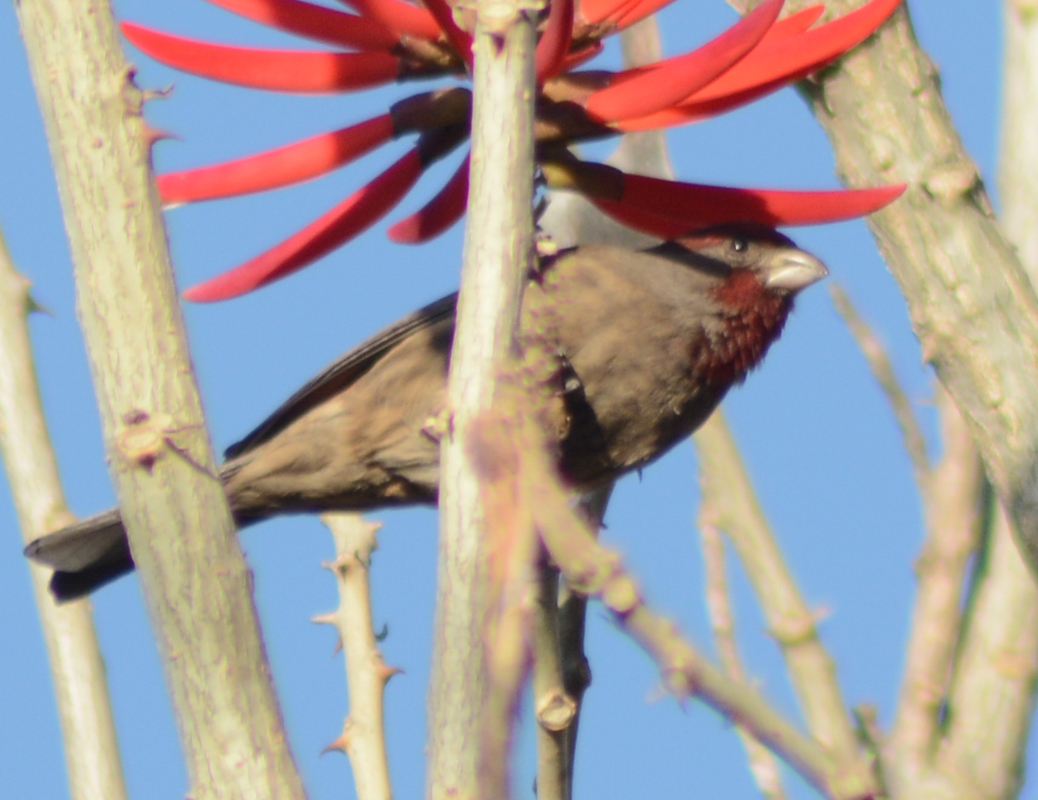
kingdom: Animalia
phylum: Chordata
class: Aves
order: Passeriformes
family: Fringillidae
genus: Haemorhous
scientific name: Haemorhous mexicanus
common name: House finch
